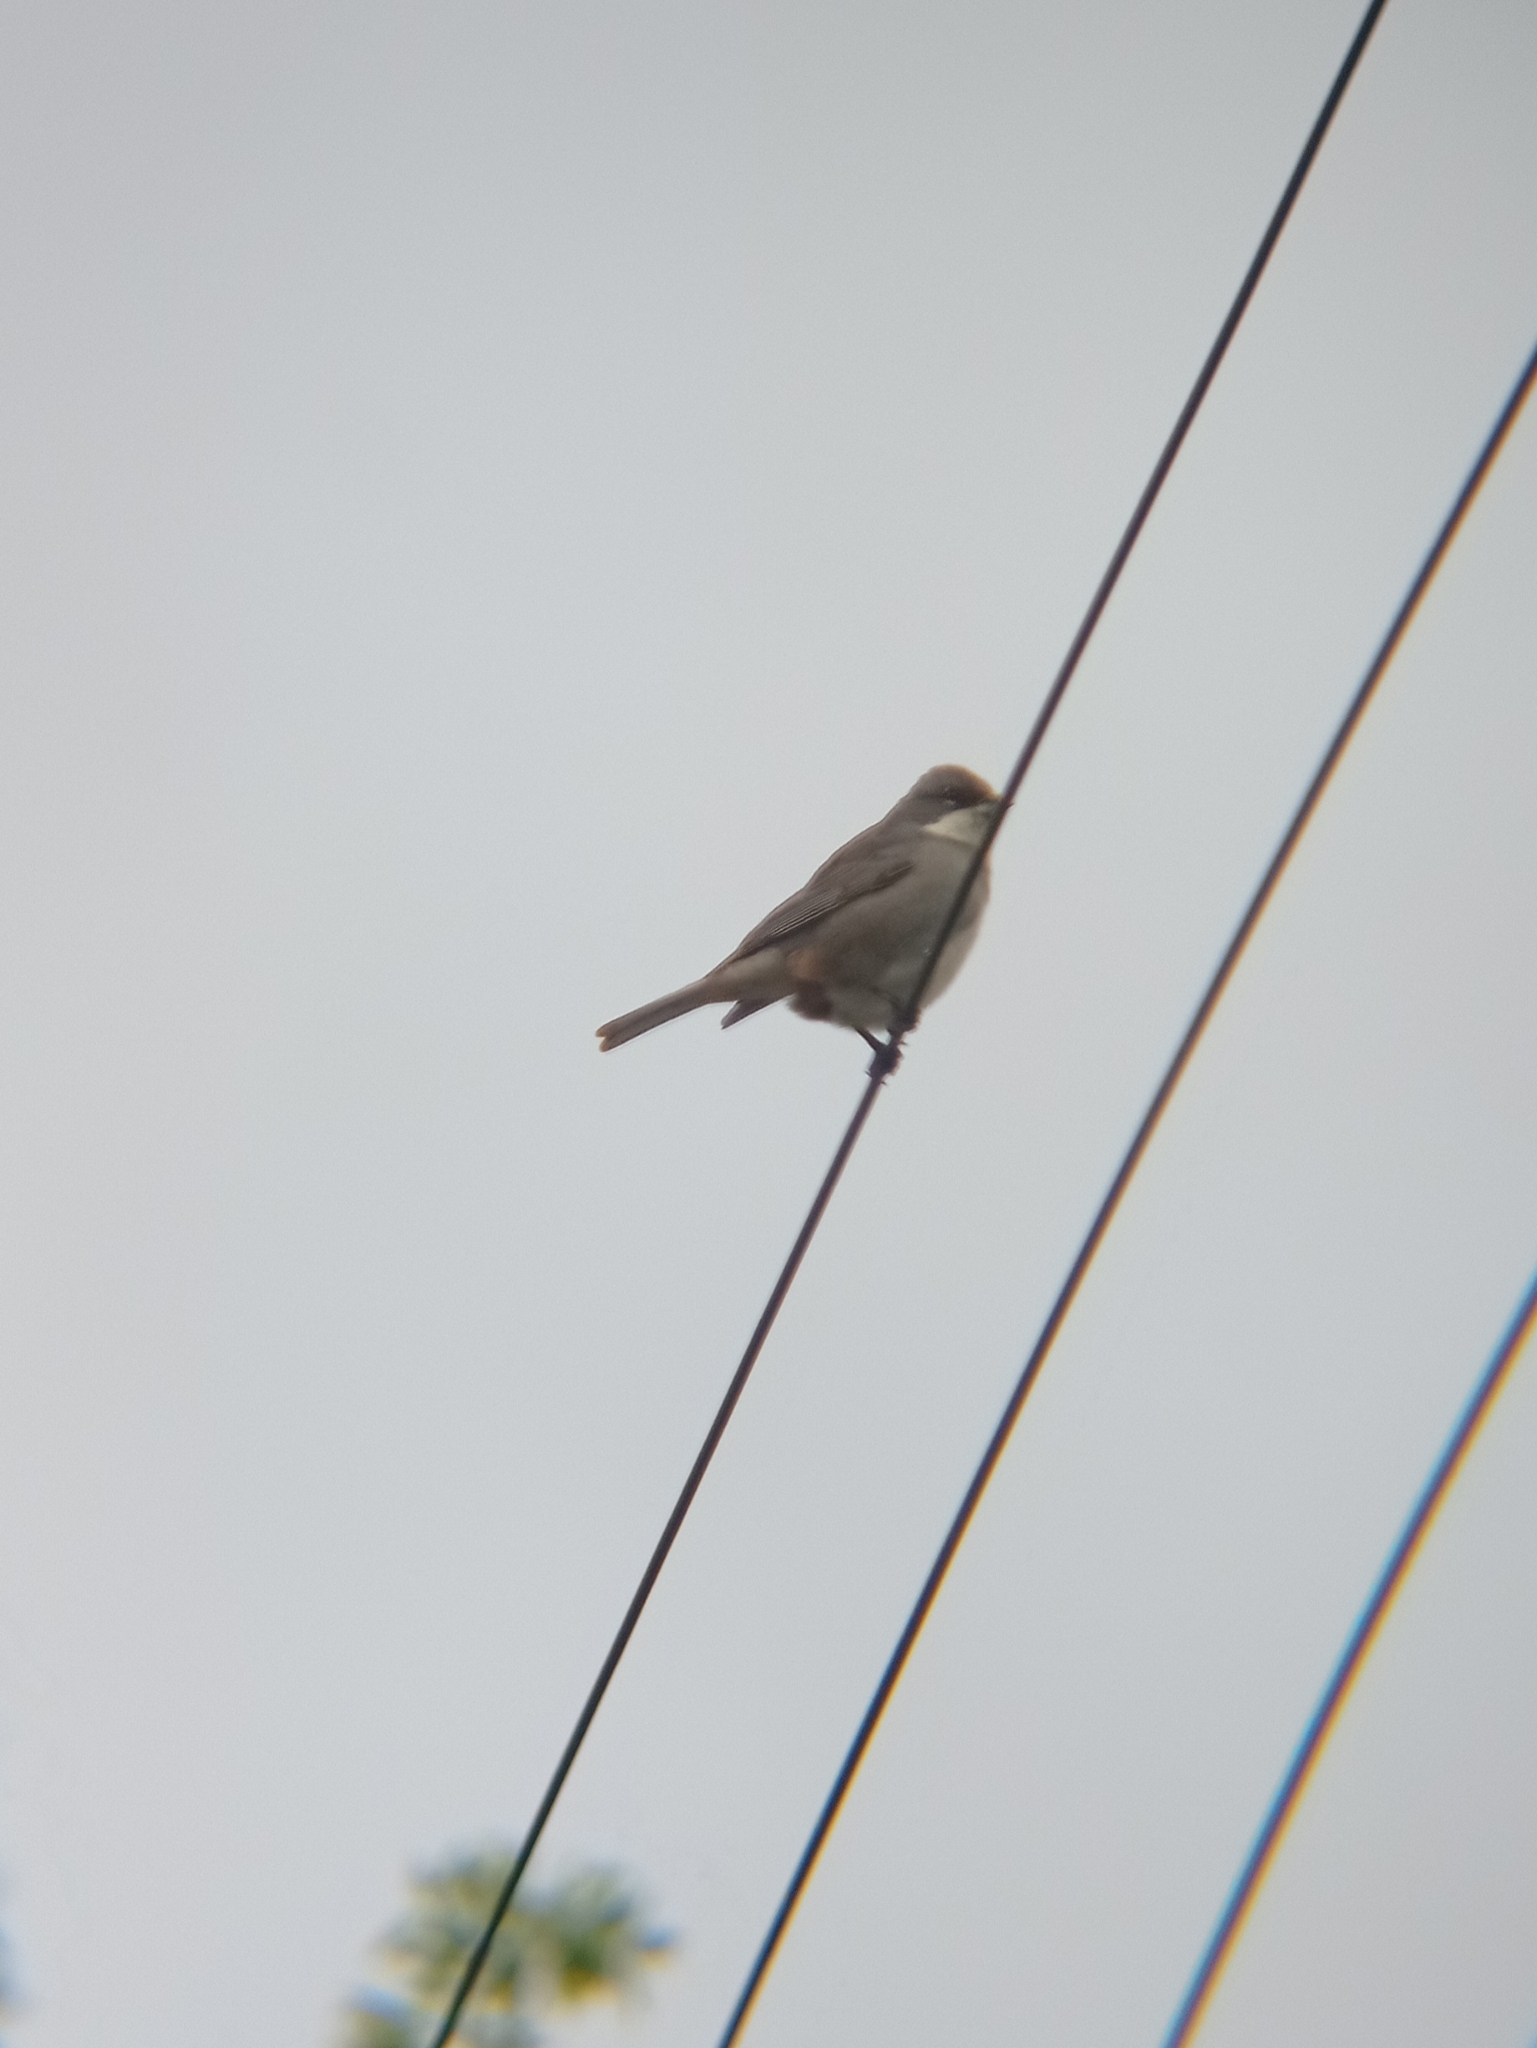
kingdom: Animalia
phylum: Chordata
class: Aves
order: Passeriformes
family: Thraupidae
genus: Diuca
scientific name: Diuca diuca
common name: Common diuca finch
